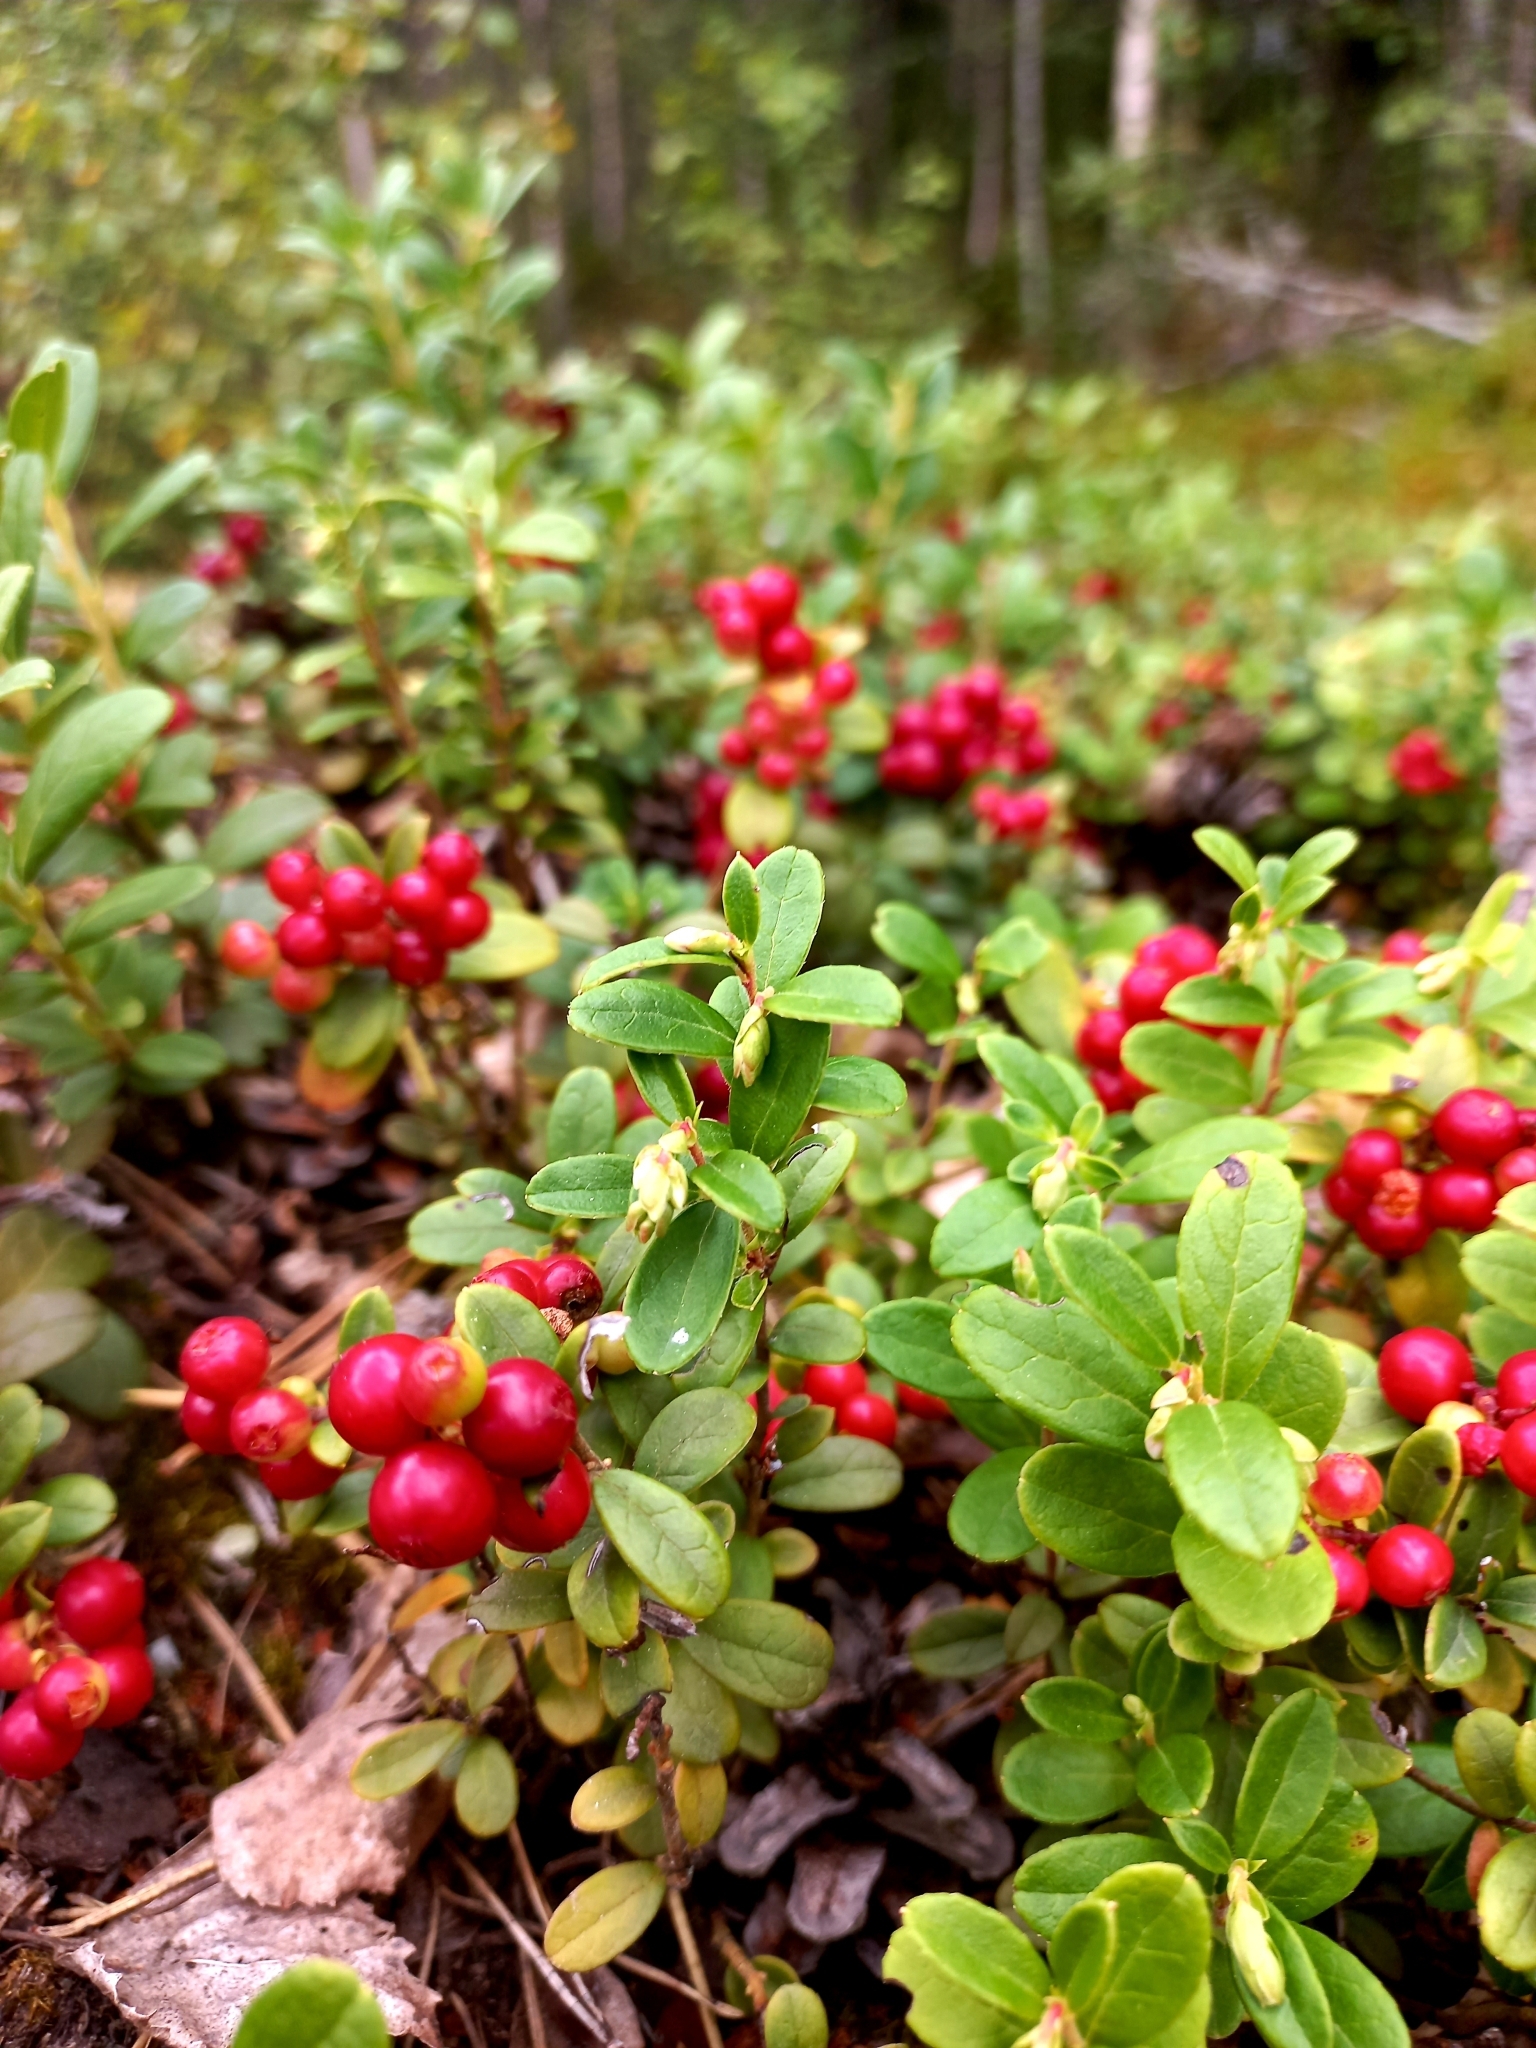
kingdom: Plantae
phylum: Tracheophyta
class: Magnoliopsida
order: Ericales
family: Ericaceae
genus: Vaccinium
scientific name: Vaccinium vitis-idaea
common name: Cowberry
